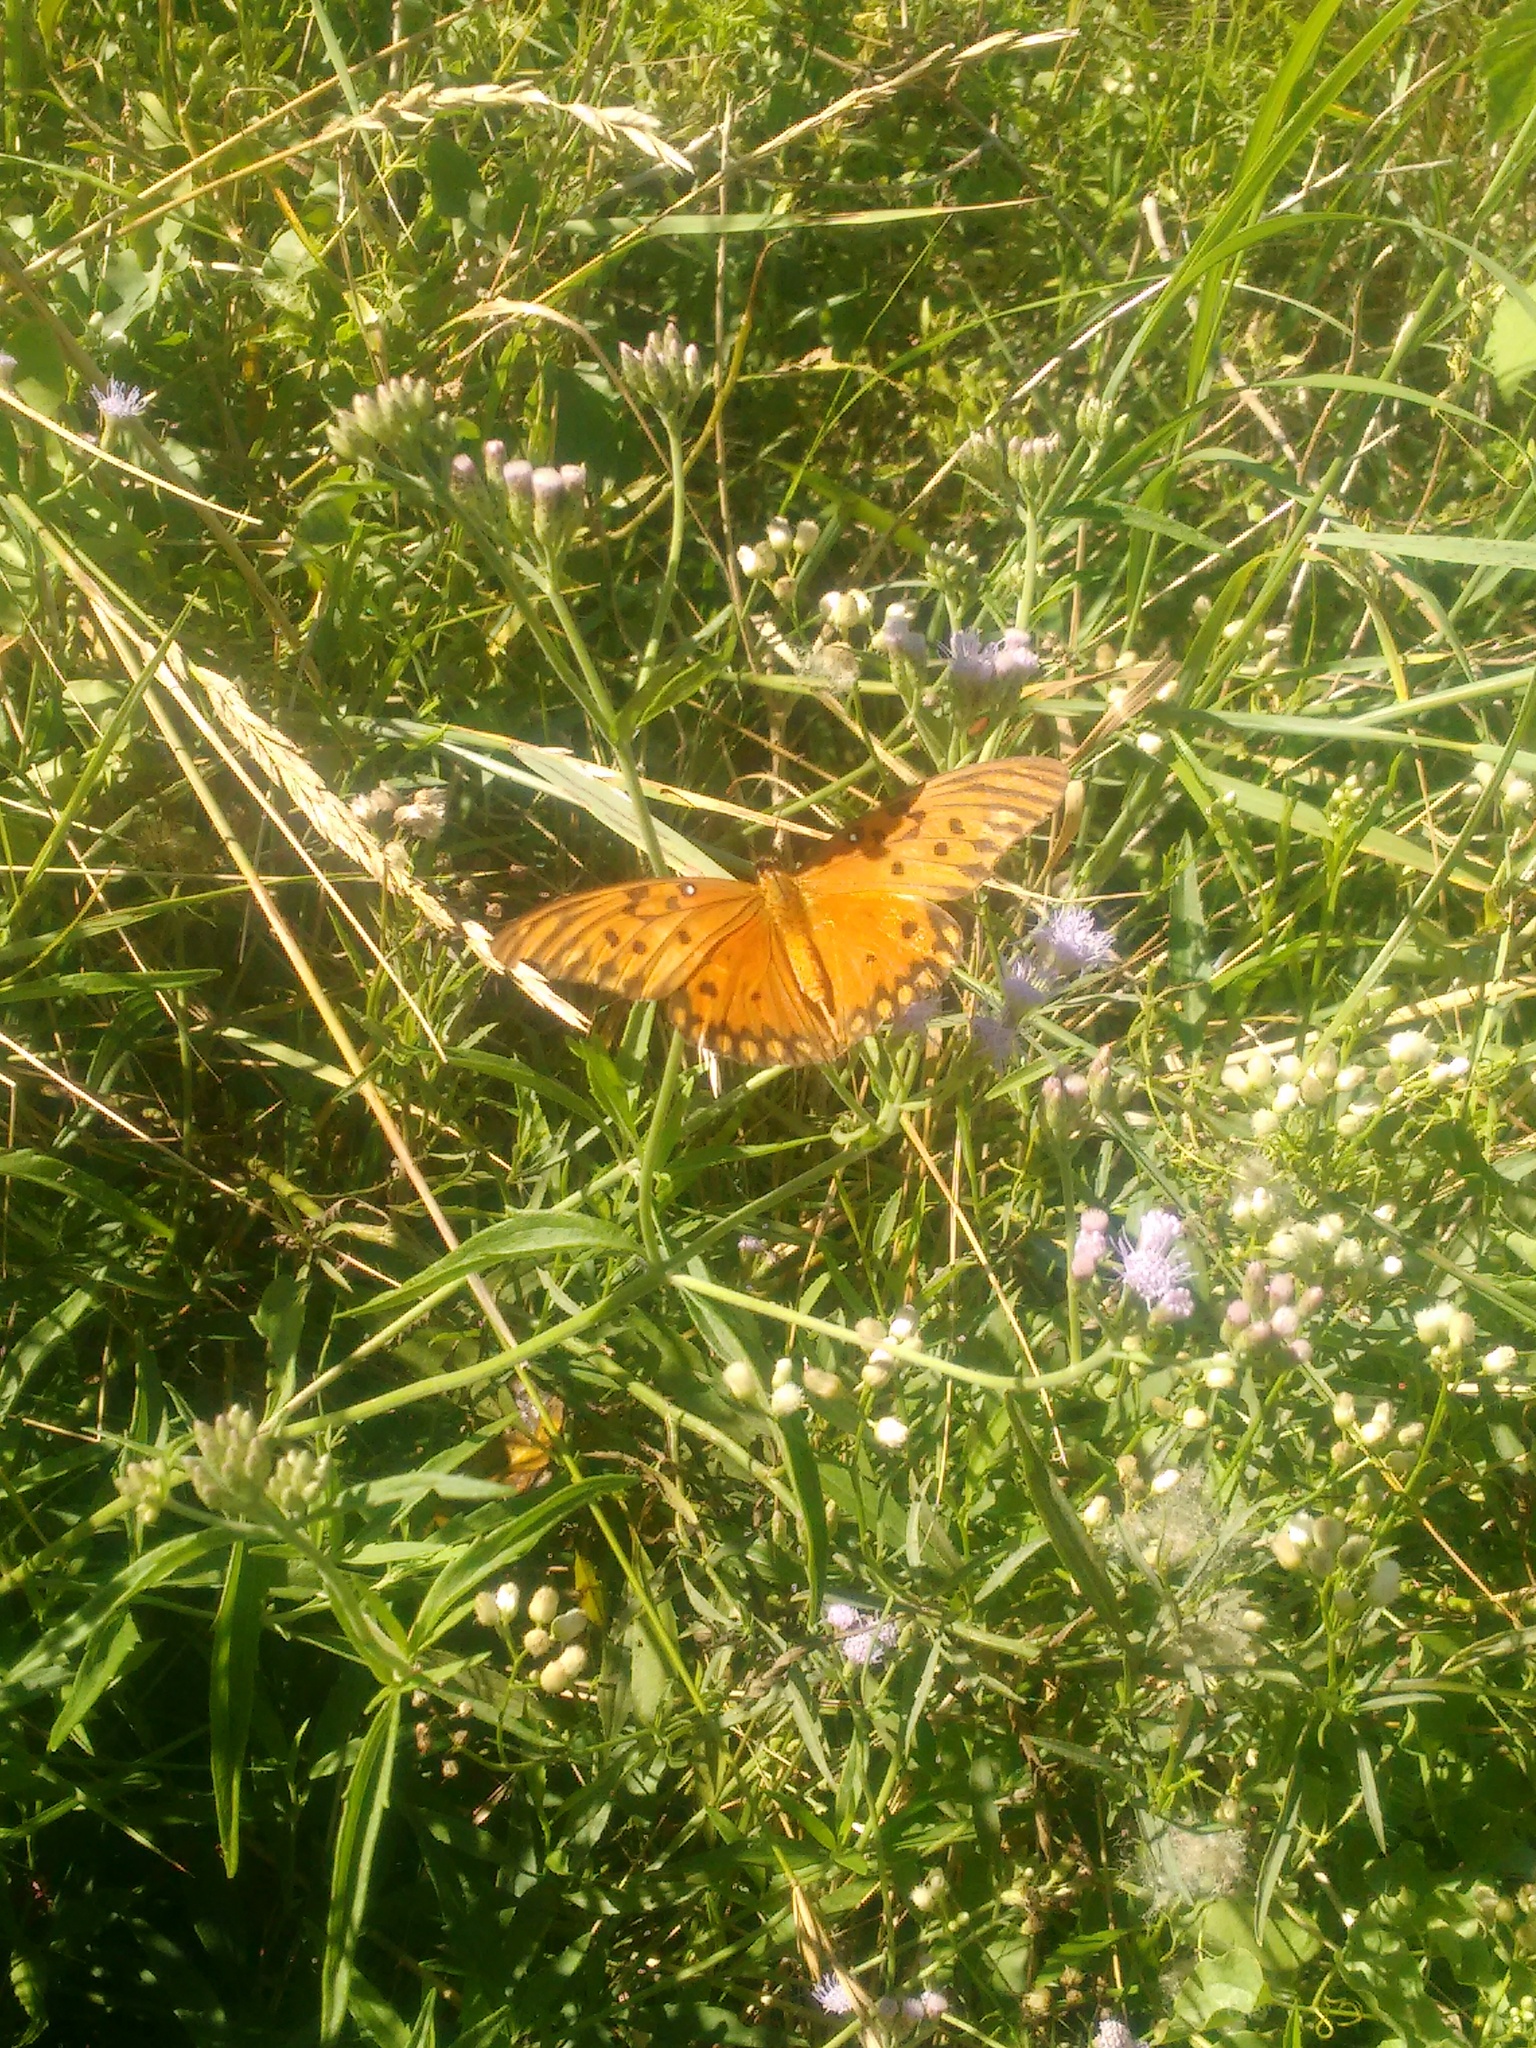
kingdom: Animalia
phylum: Arthropoda
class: Insecta
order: Lepidoptera
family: Nymphalidae
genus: Dione
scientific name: Dione vanillae
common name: Gulf fritillary
